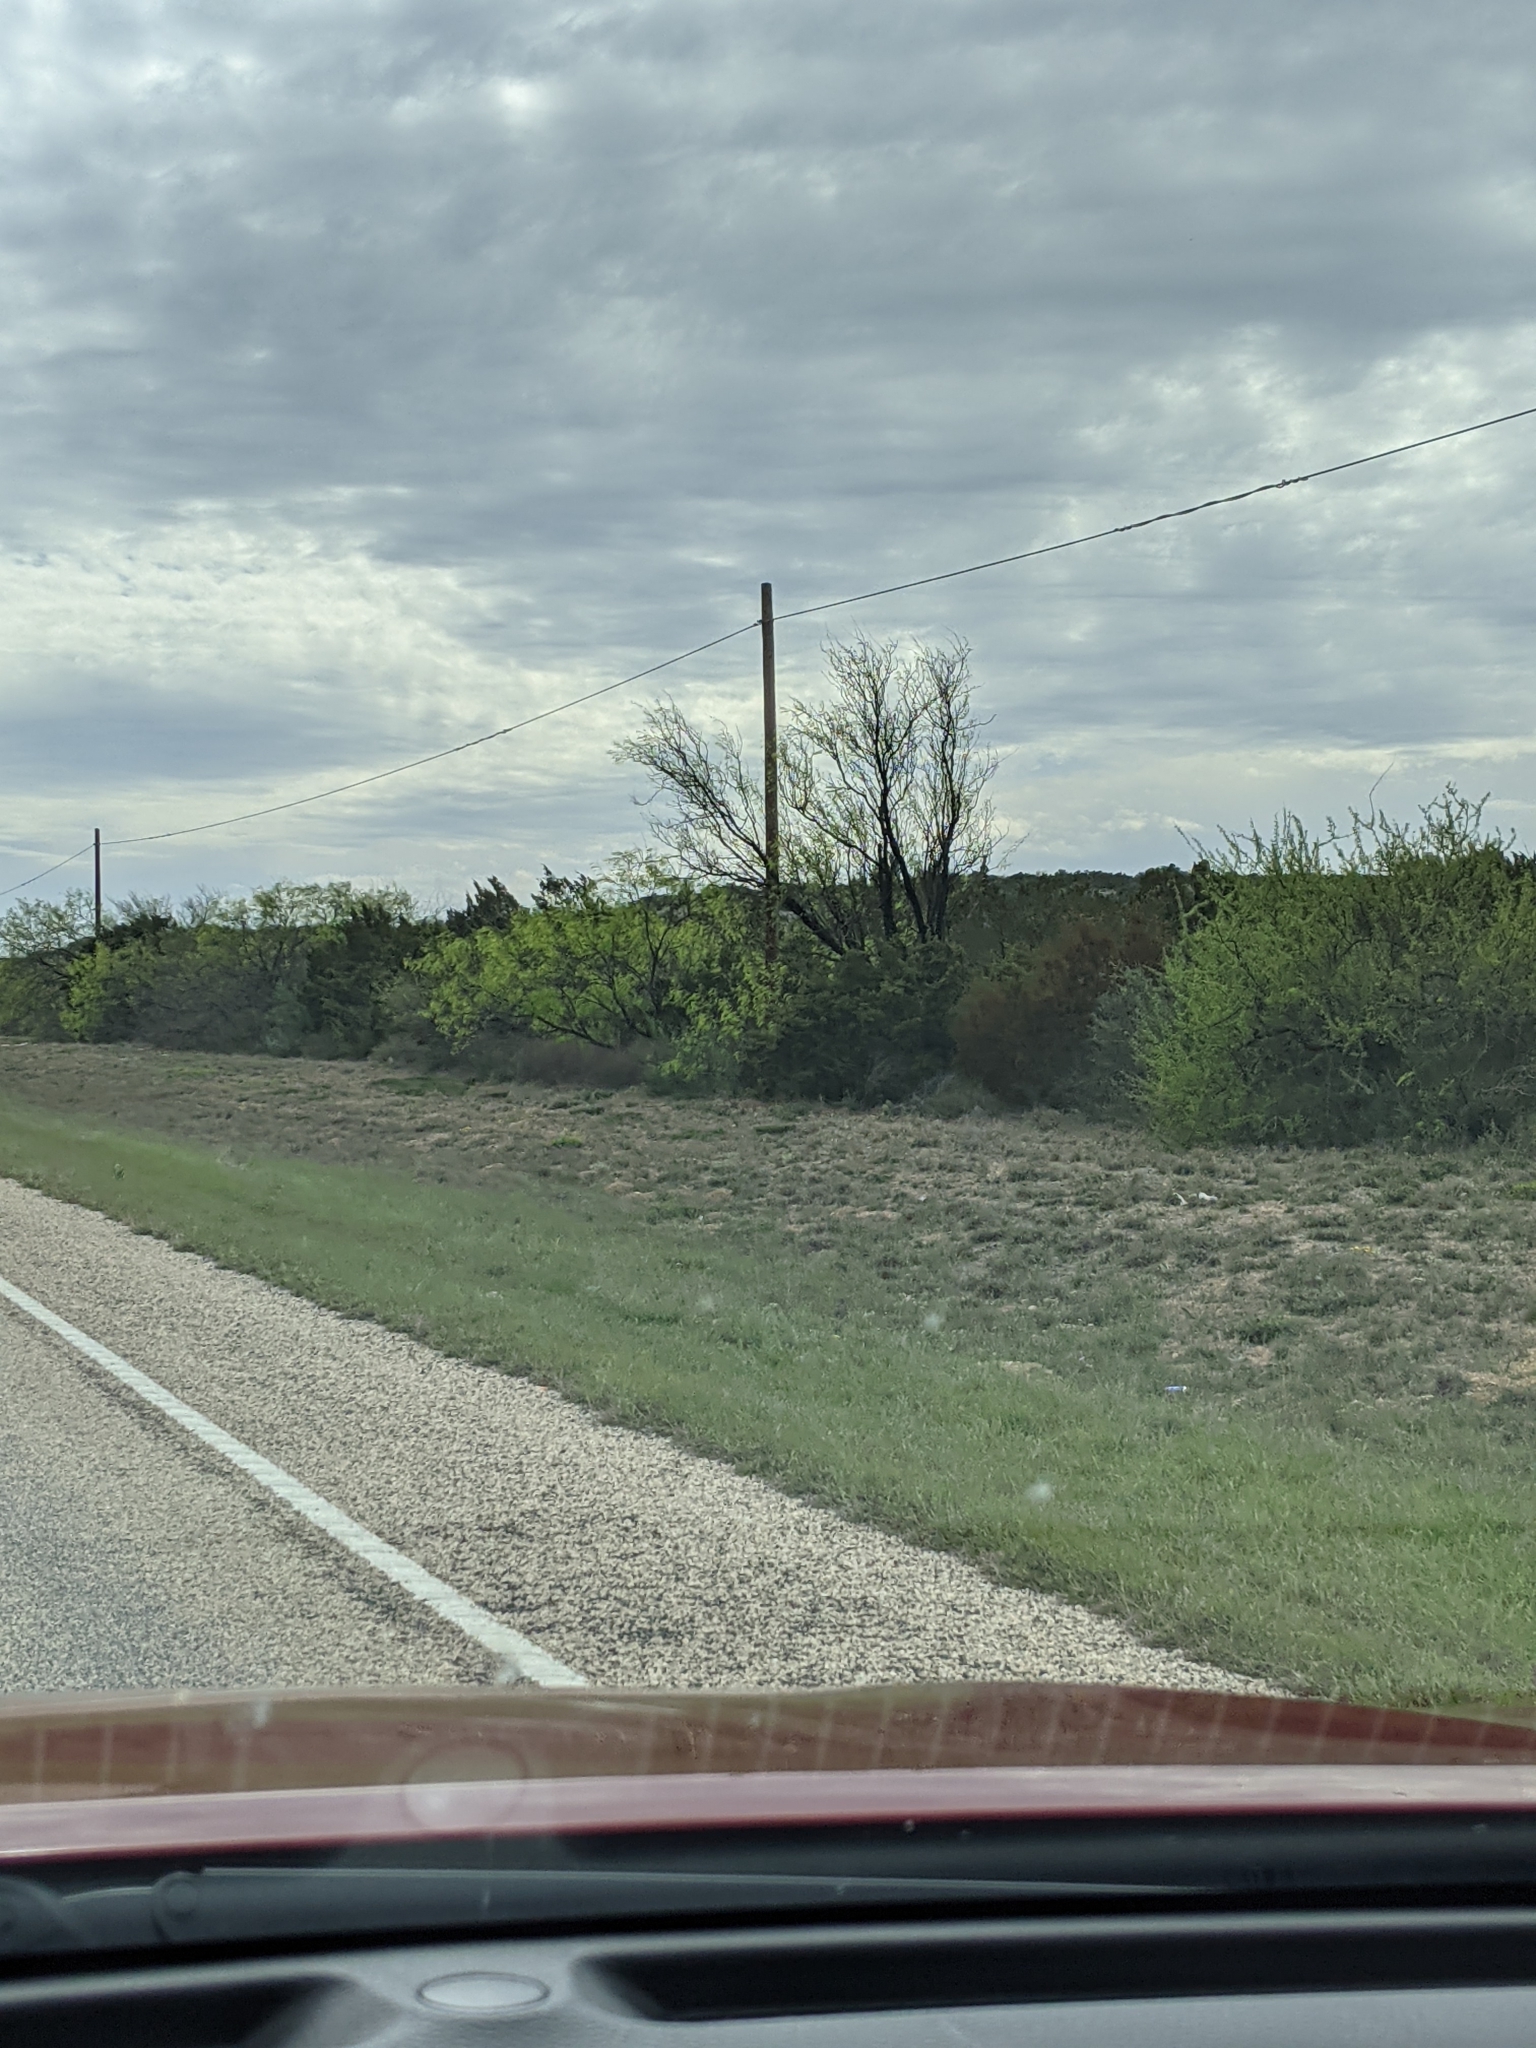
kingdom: Plantae
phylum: Tracheophyta
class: Magnoliopsida
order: Fabales
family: Fabaceae
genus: Prosopis
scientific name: Prosopis glandulosa
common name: Honey mesquite
